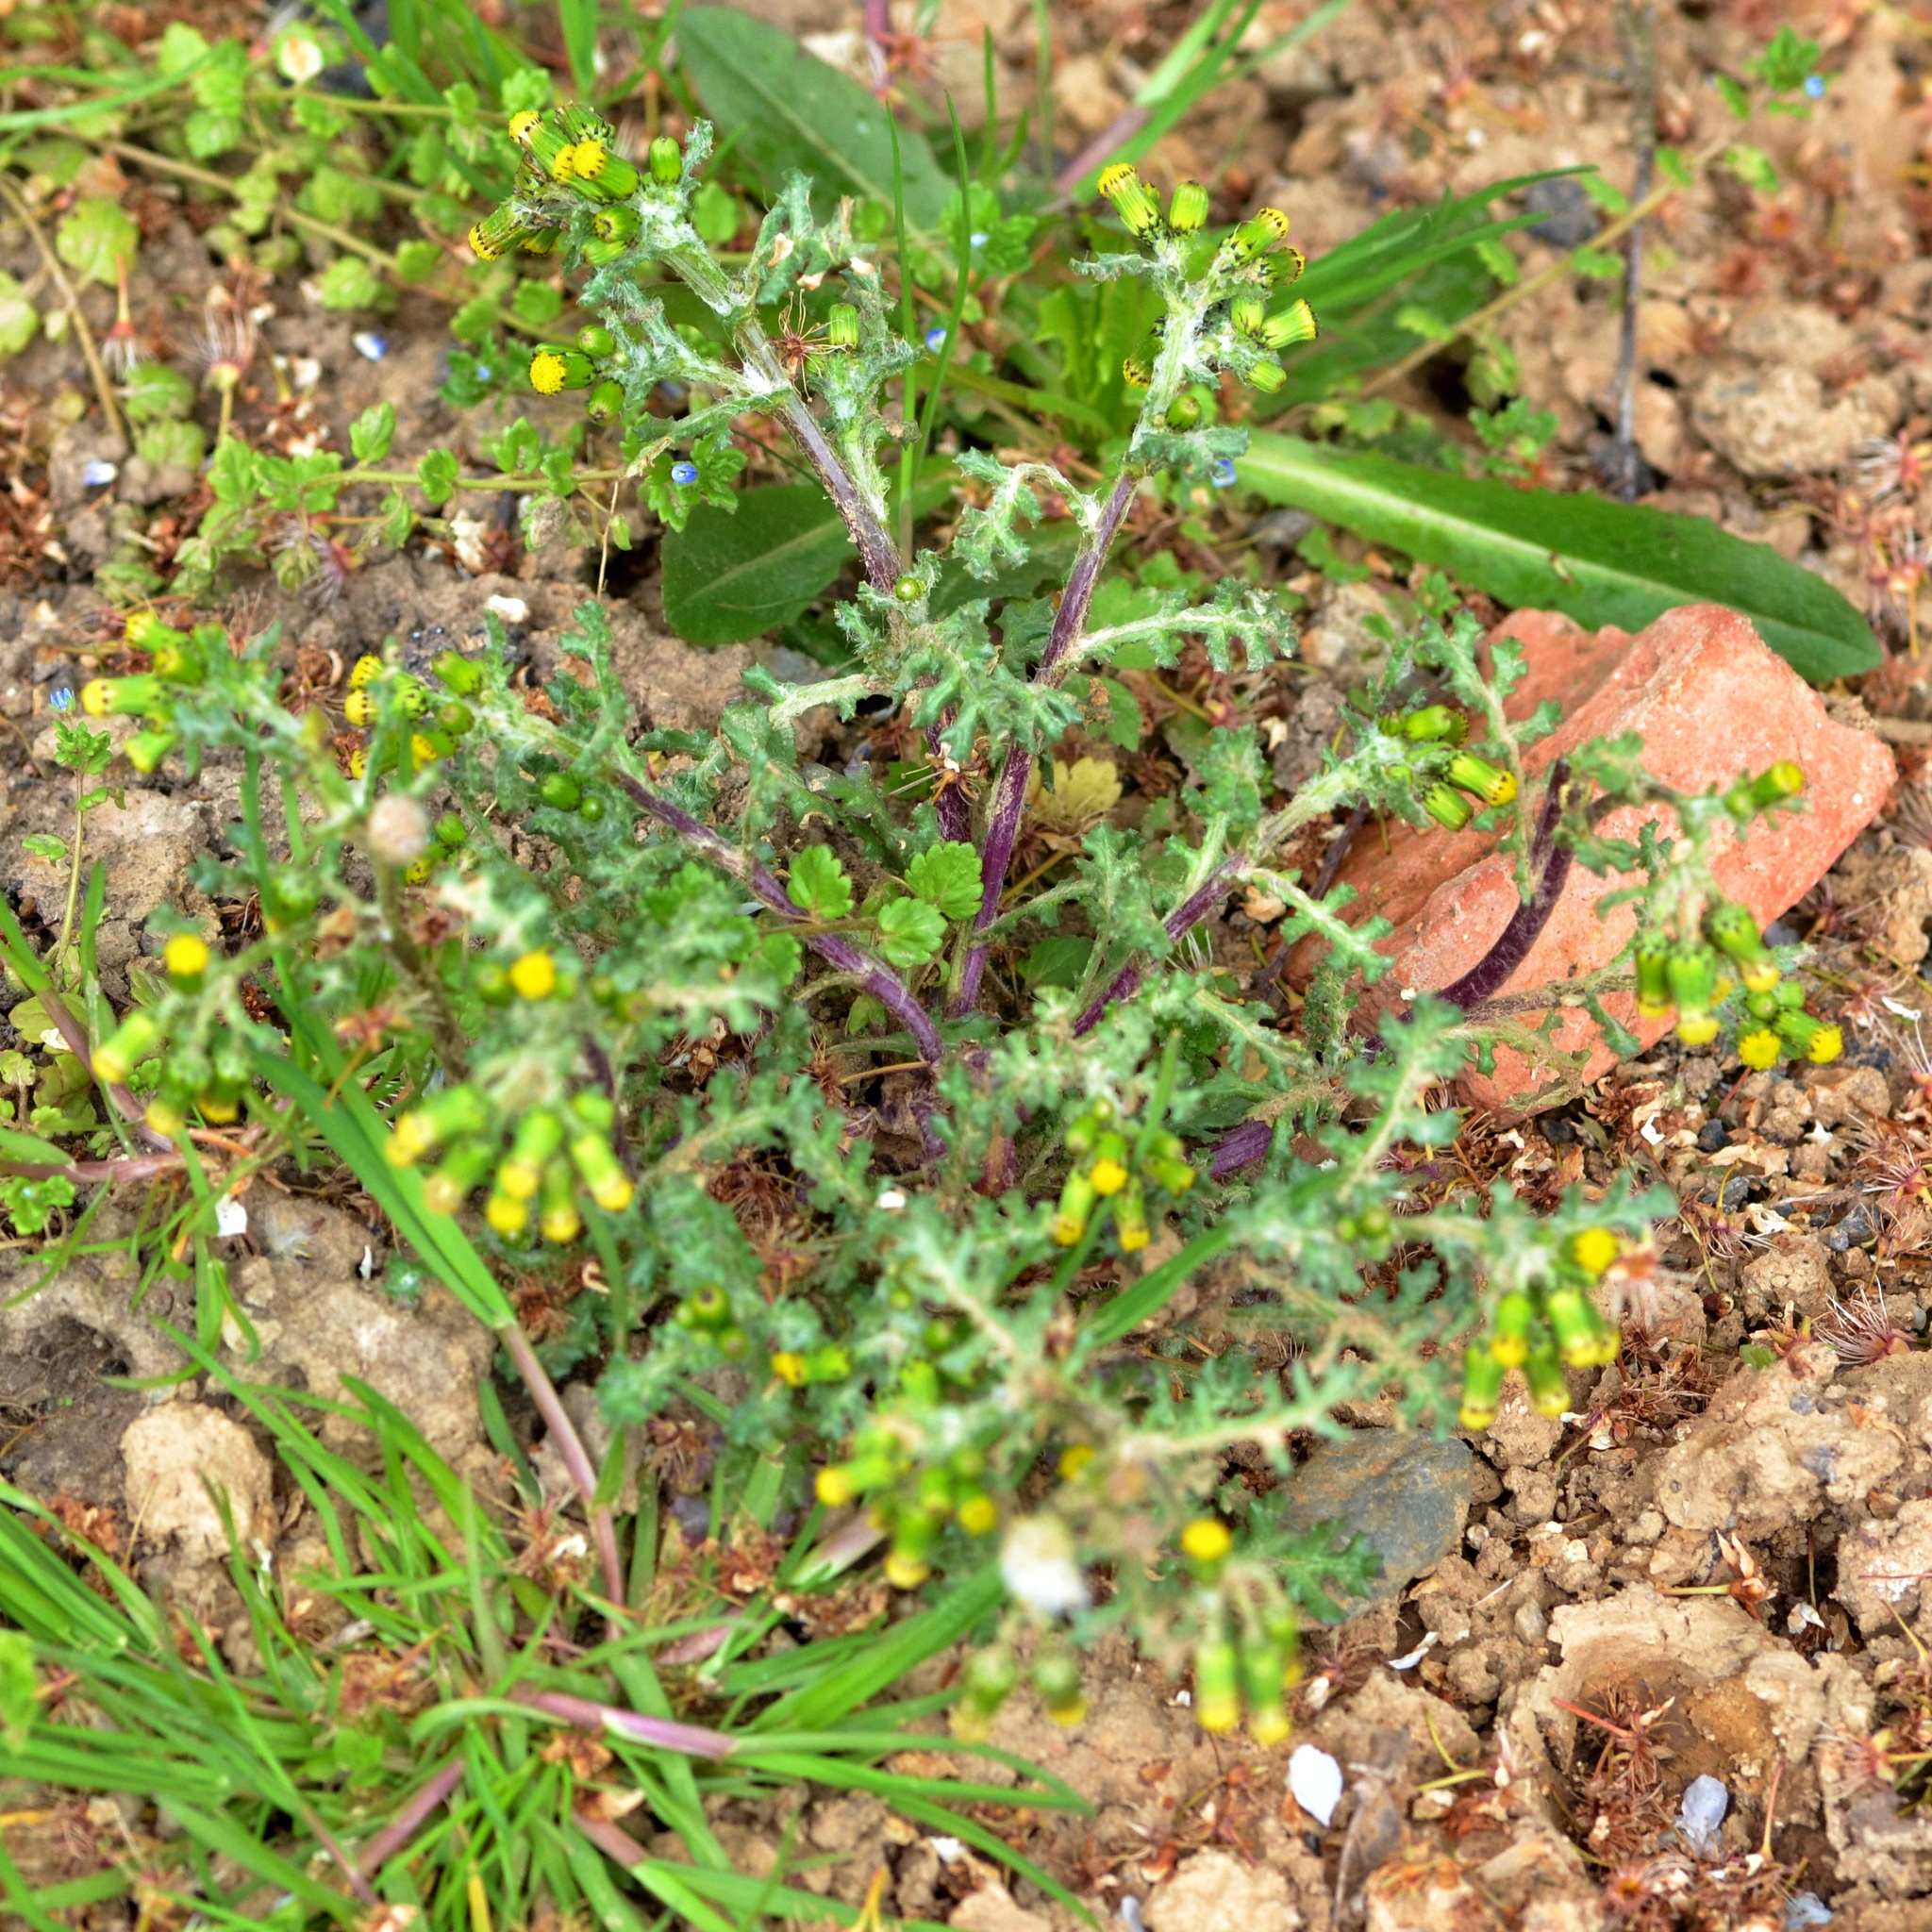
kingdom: Plantae
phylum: Tracheophyta
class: Magnoliopsida
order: Asterales
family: Asteraceae
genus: Senecio
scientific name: Senecio vulgaris
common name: Old-man-in-the-spring
